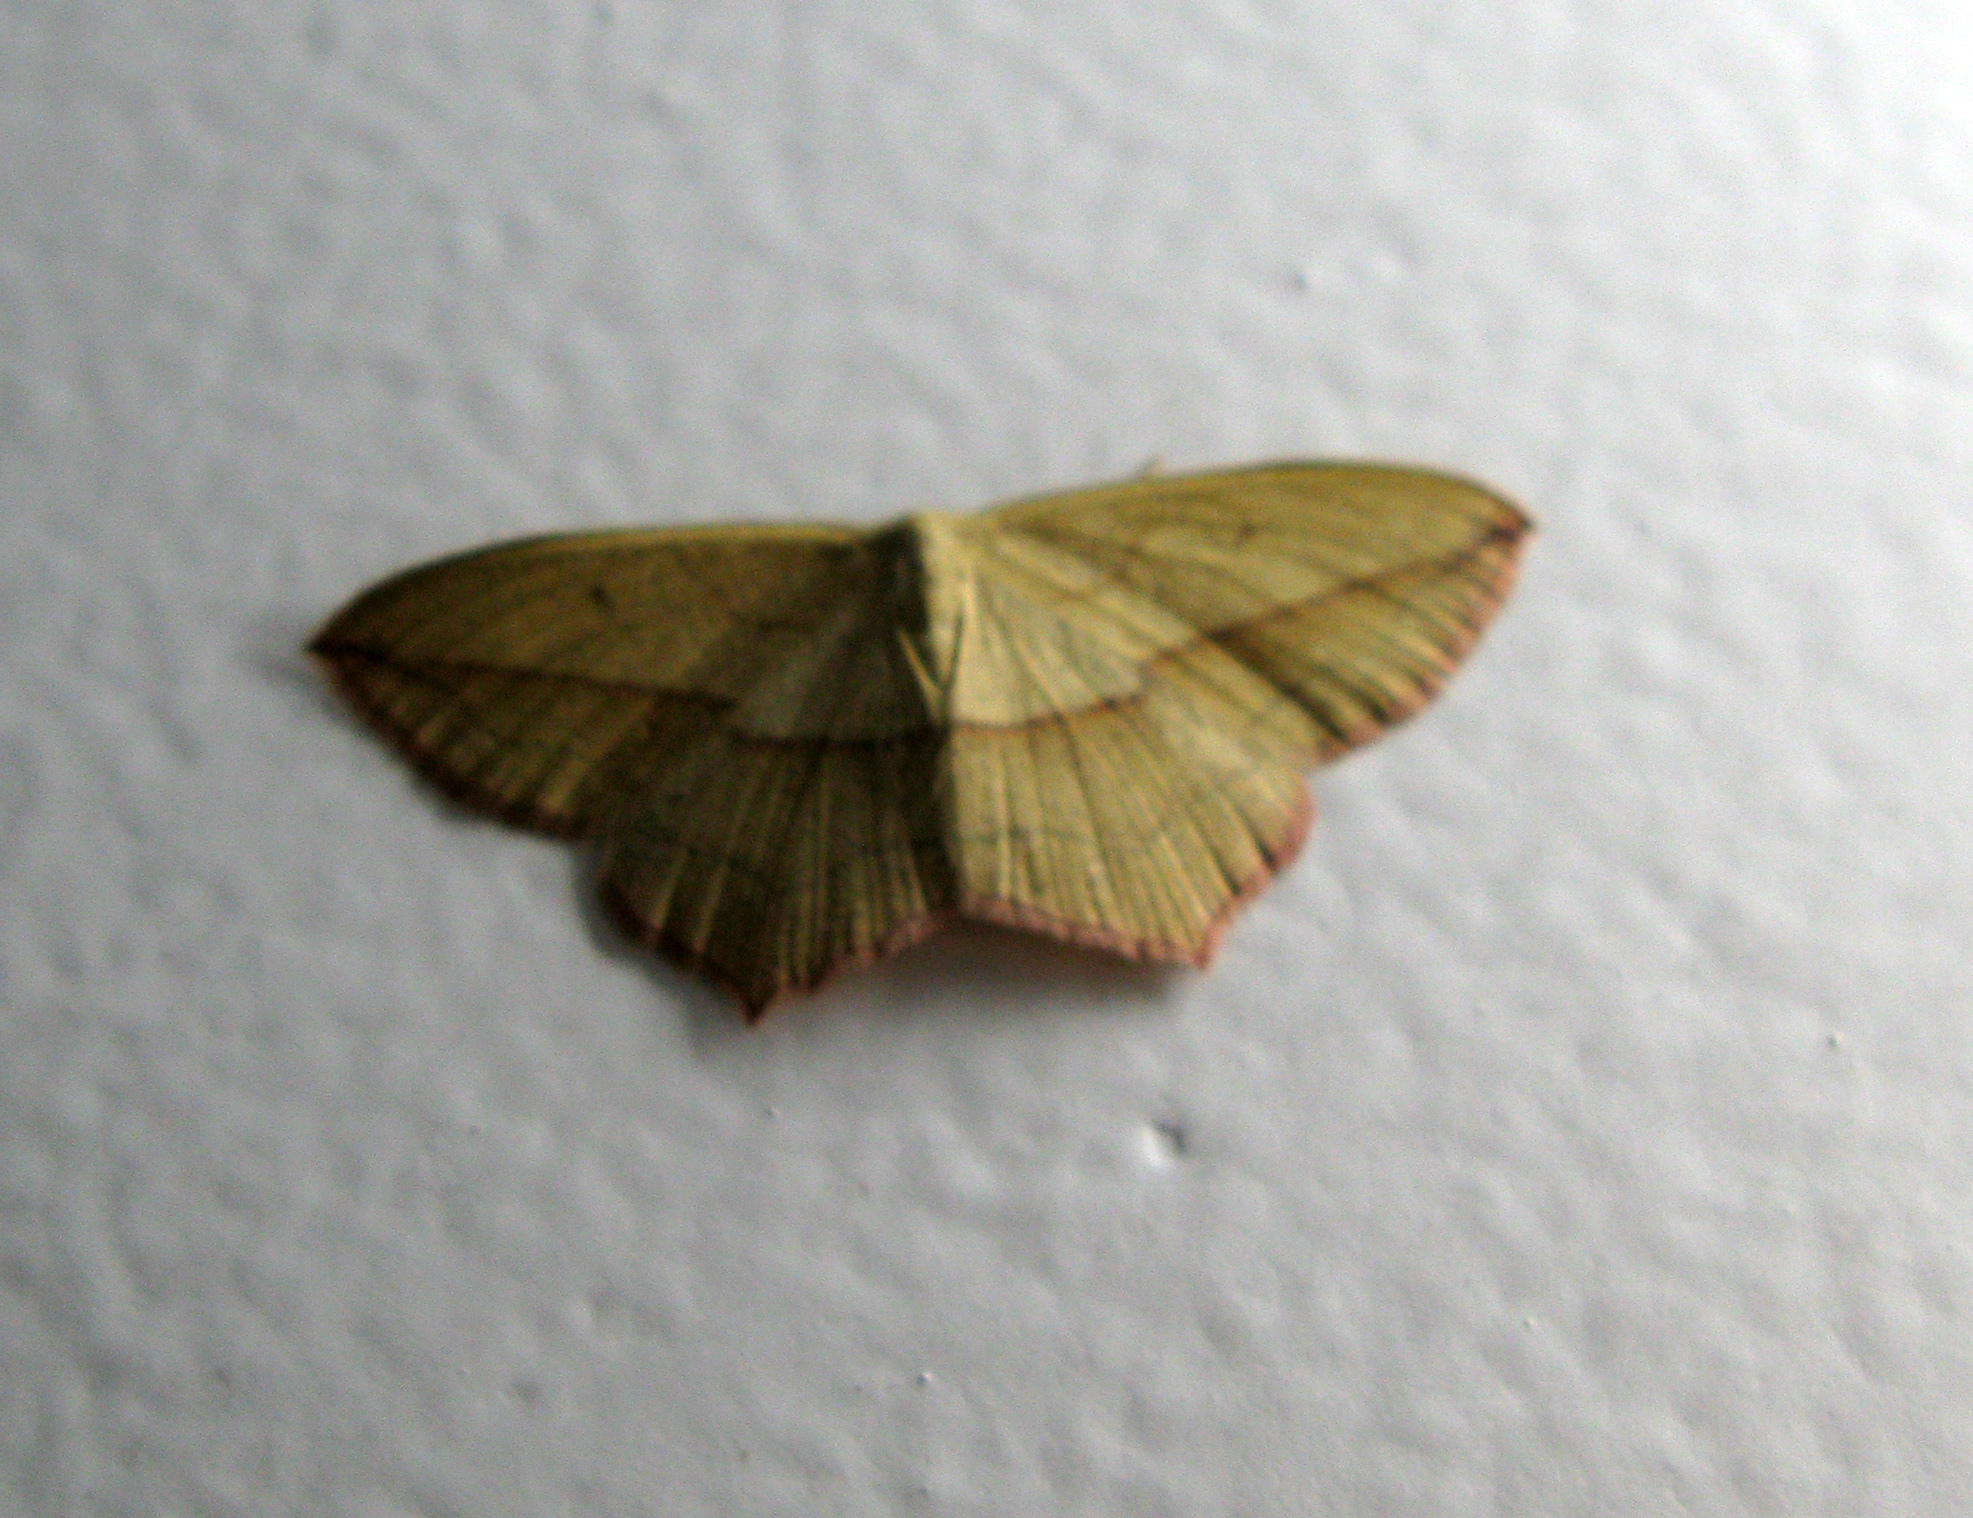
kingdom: Animalia
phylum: Arthropoda
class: Insecta
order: Lepidoptera
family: Geometridae
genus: Timandra
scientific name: Timandra comae
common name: Blood-vein
